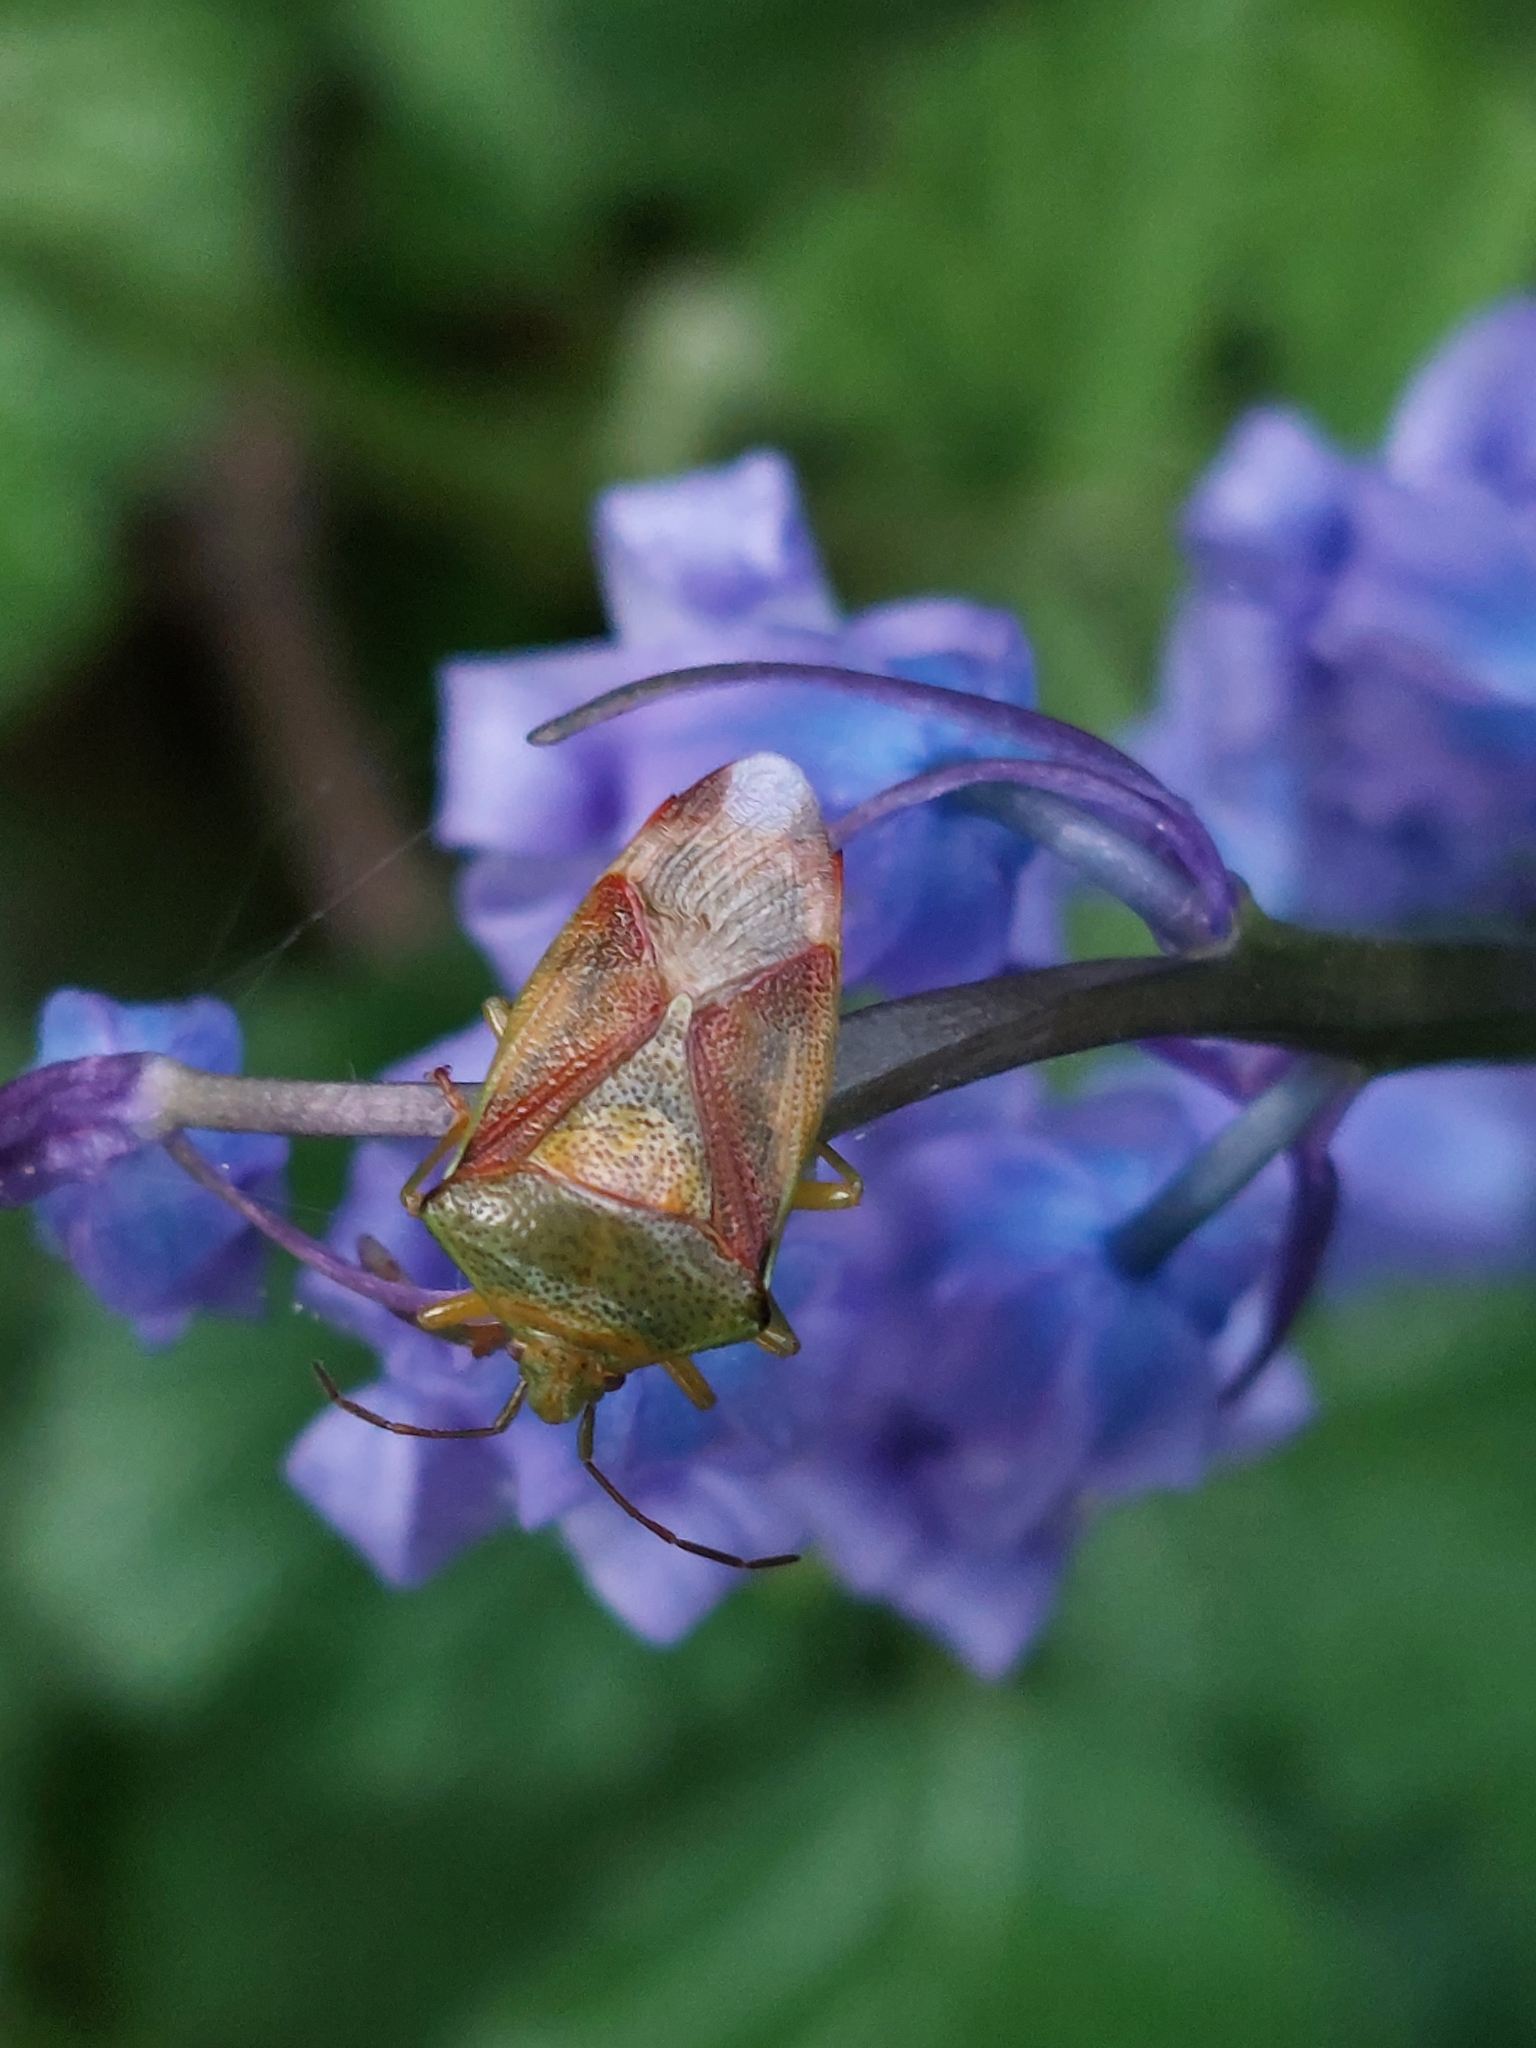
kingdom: Animalia
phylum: Arthropoda
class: Insecta
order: Hemiptera
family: Acanthosomatidae
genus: Elasmostethus
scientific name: Elasmostethus interstinctus
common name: Birch shieldbug
